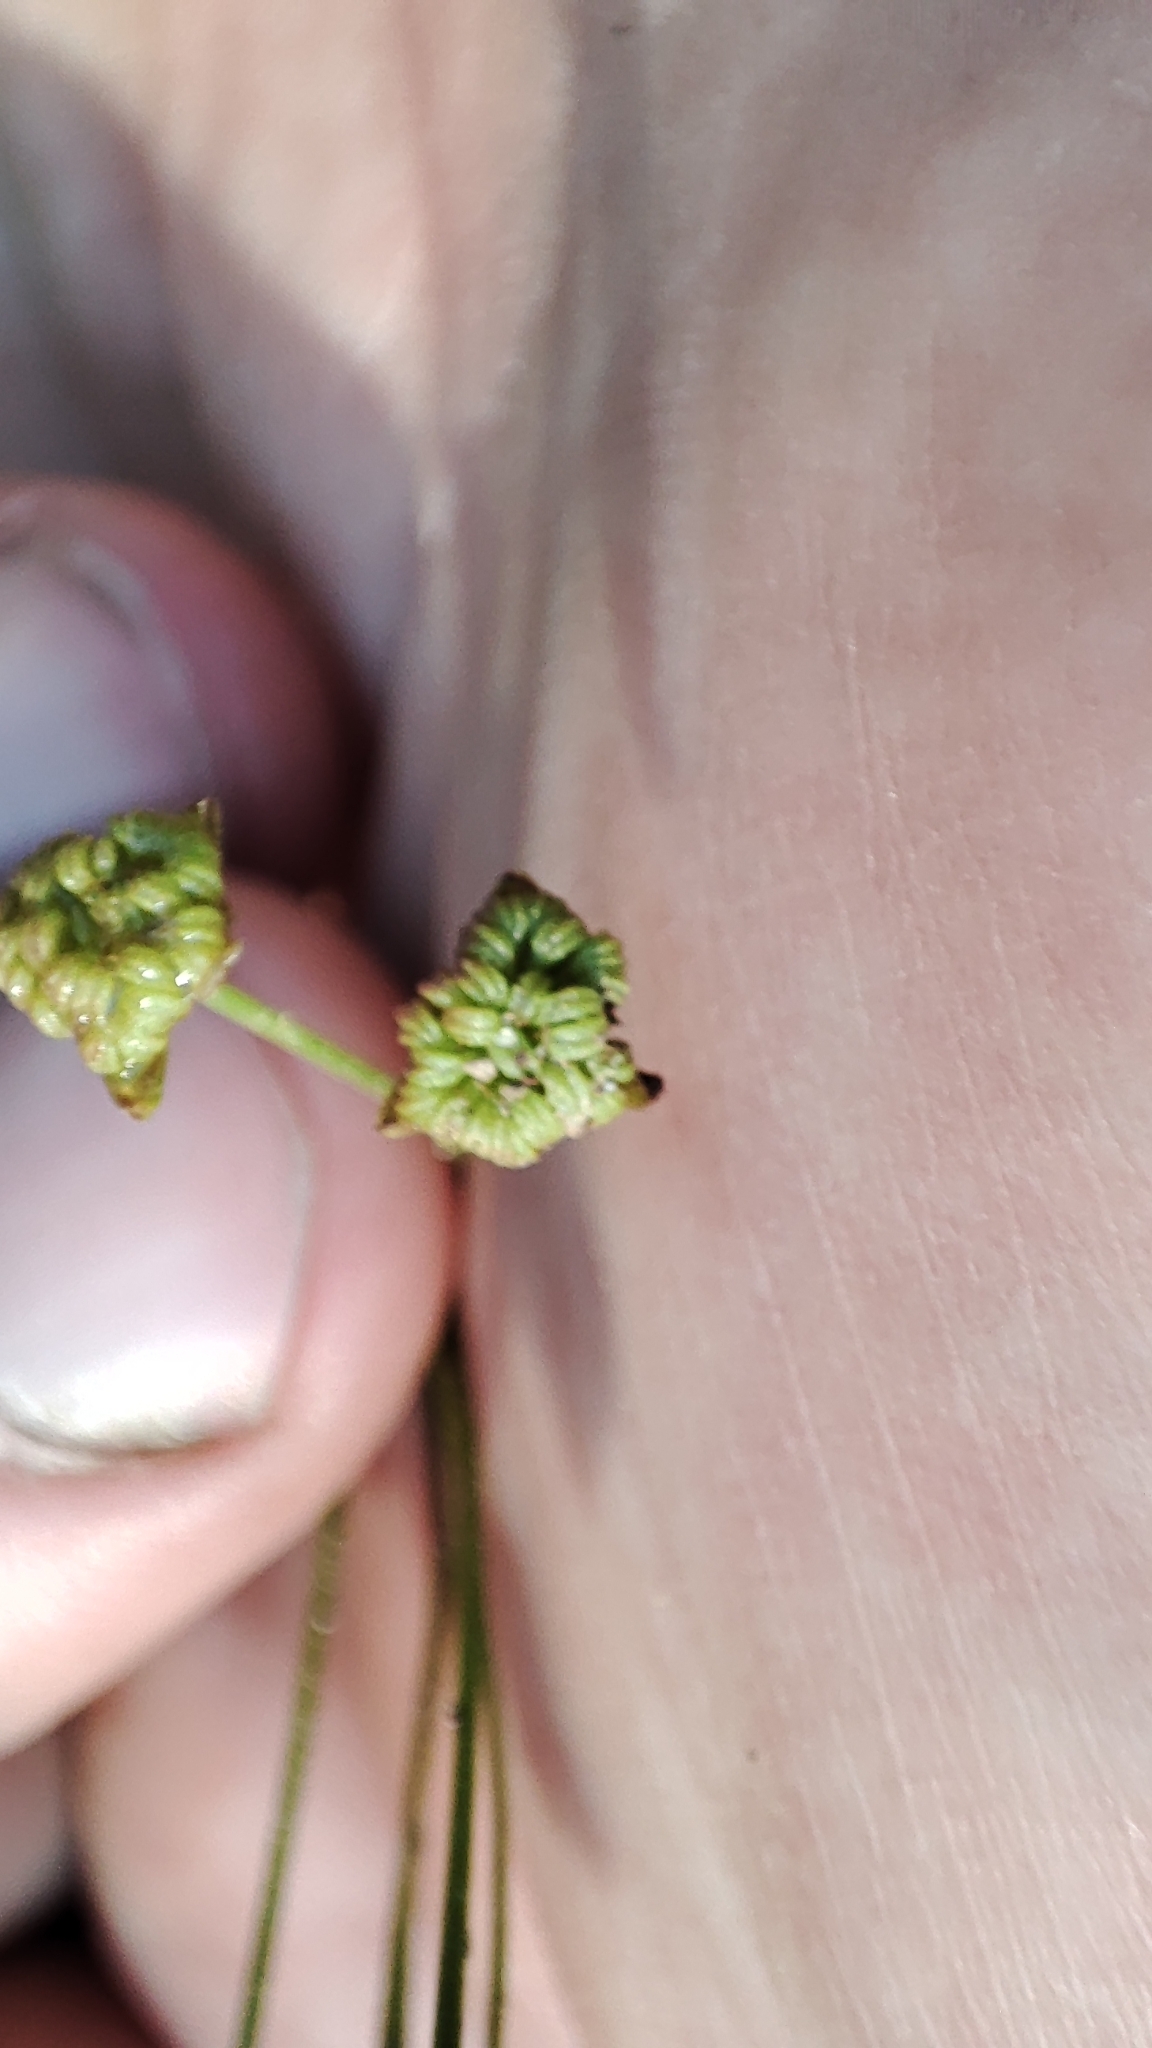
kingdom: Plantae
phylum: Tracheophyta
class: Liliopsida
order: Alismatales
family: Alismataceae
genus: Alisma
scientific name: Alisma plantago-aquatica
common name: Water-plantain
